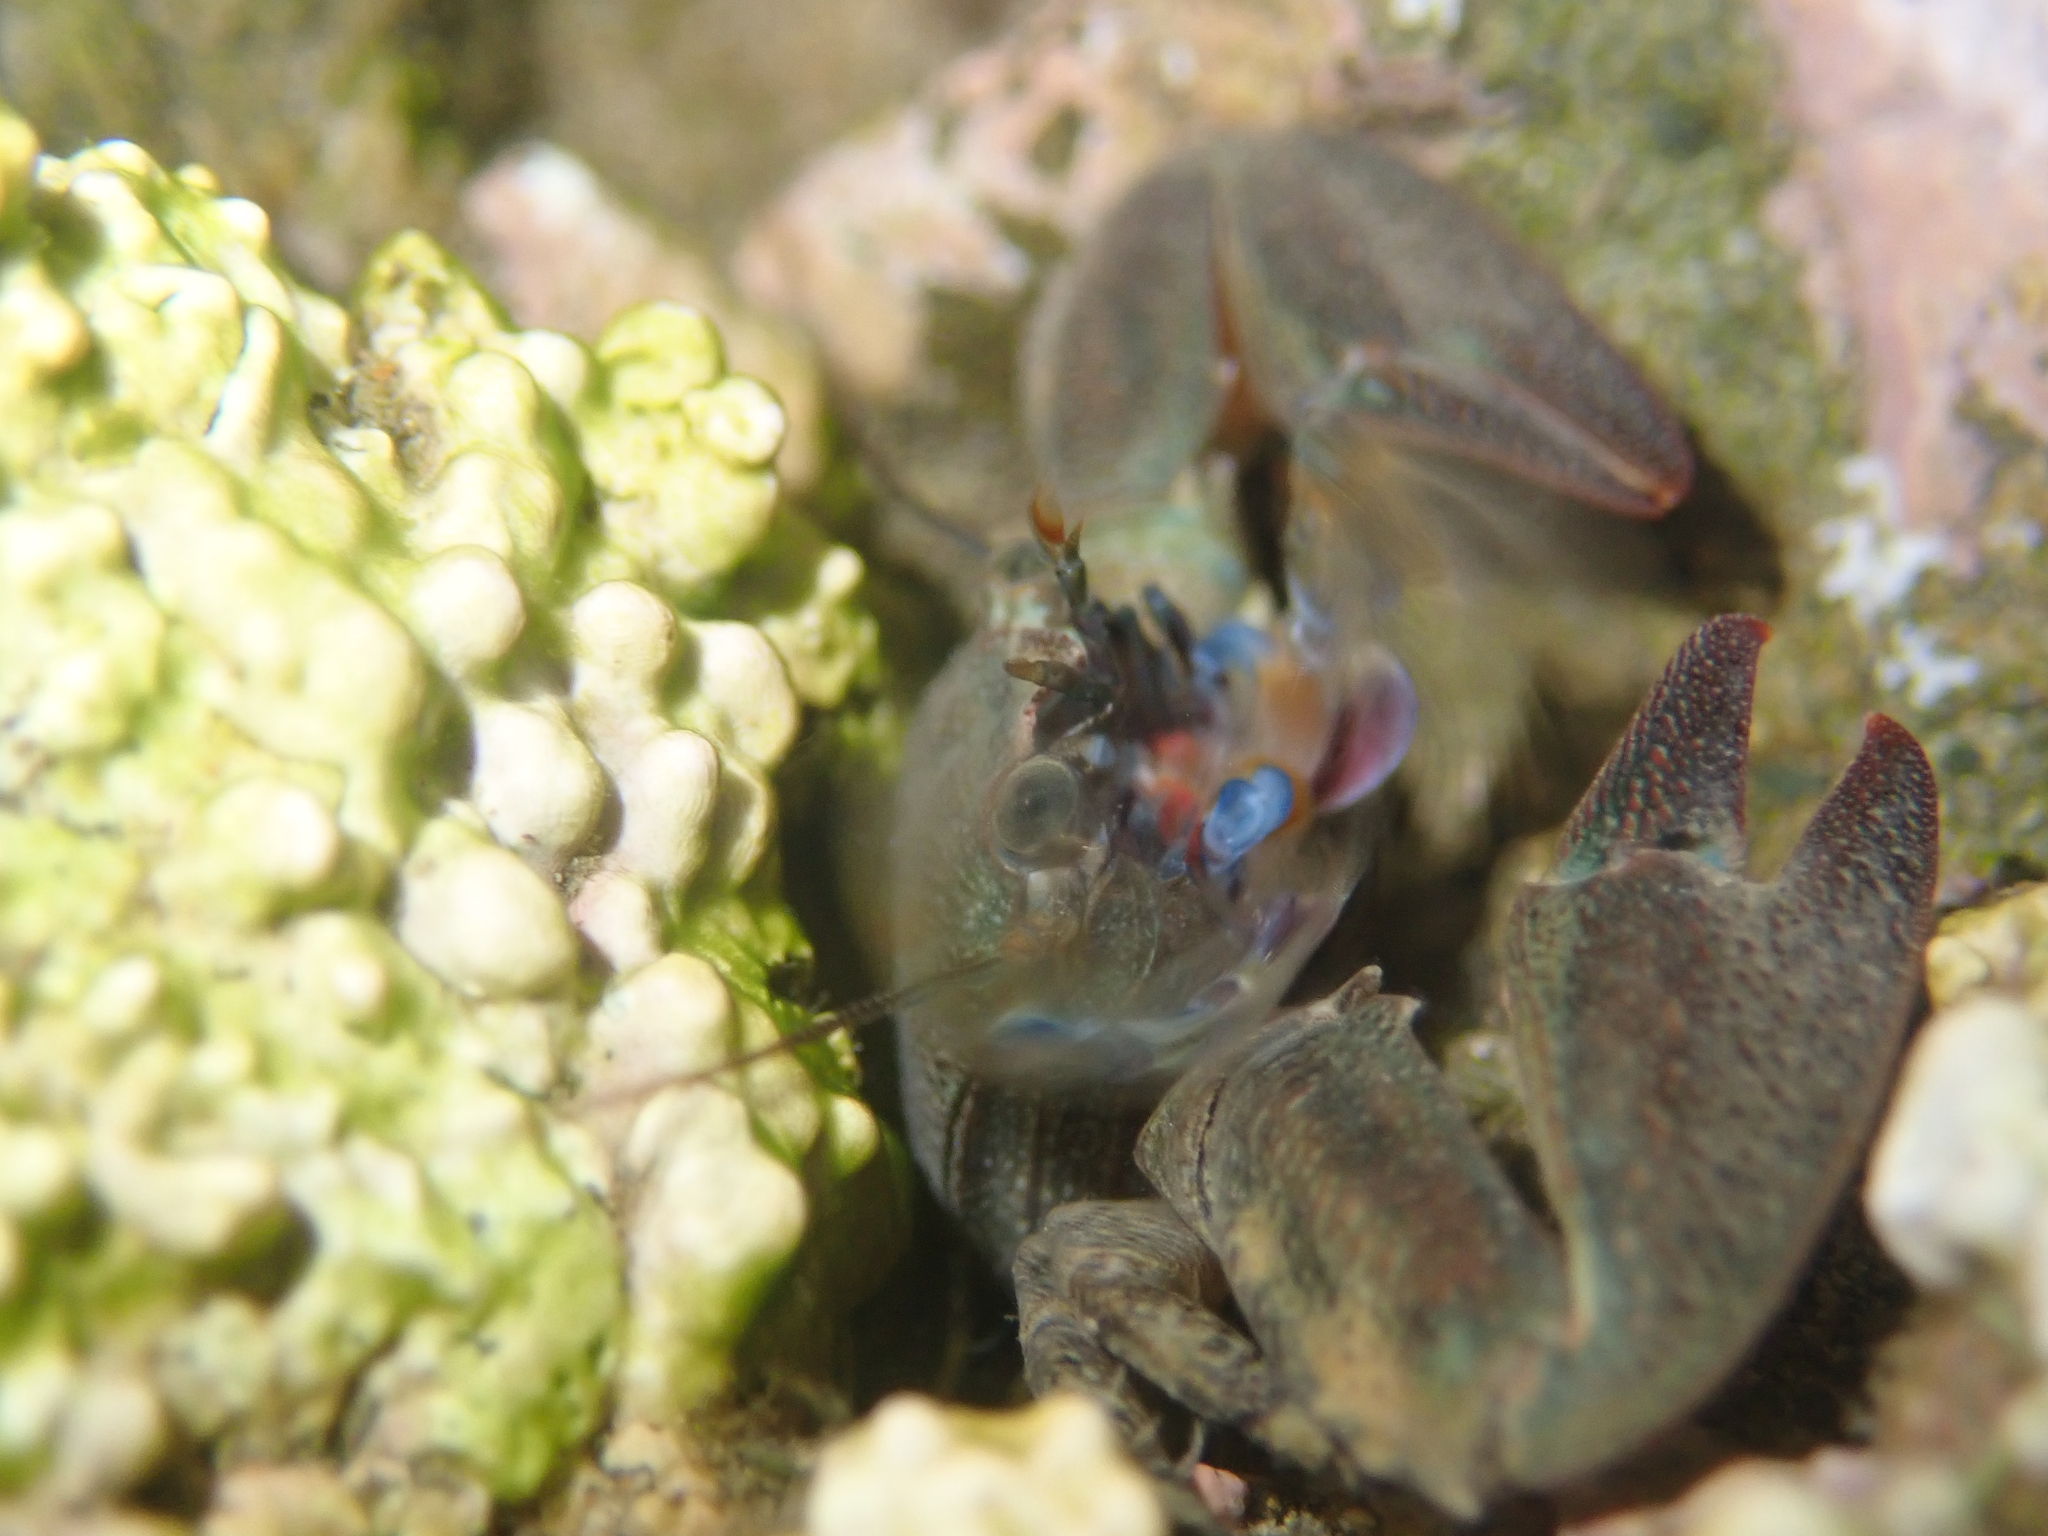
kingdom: Animalia
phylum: Arthropoda
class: Malacostraca
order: Decapoda
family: Porcellanidae
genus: Petrolisthes
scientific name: Petrolisthes elongatus
